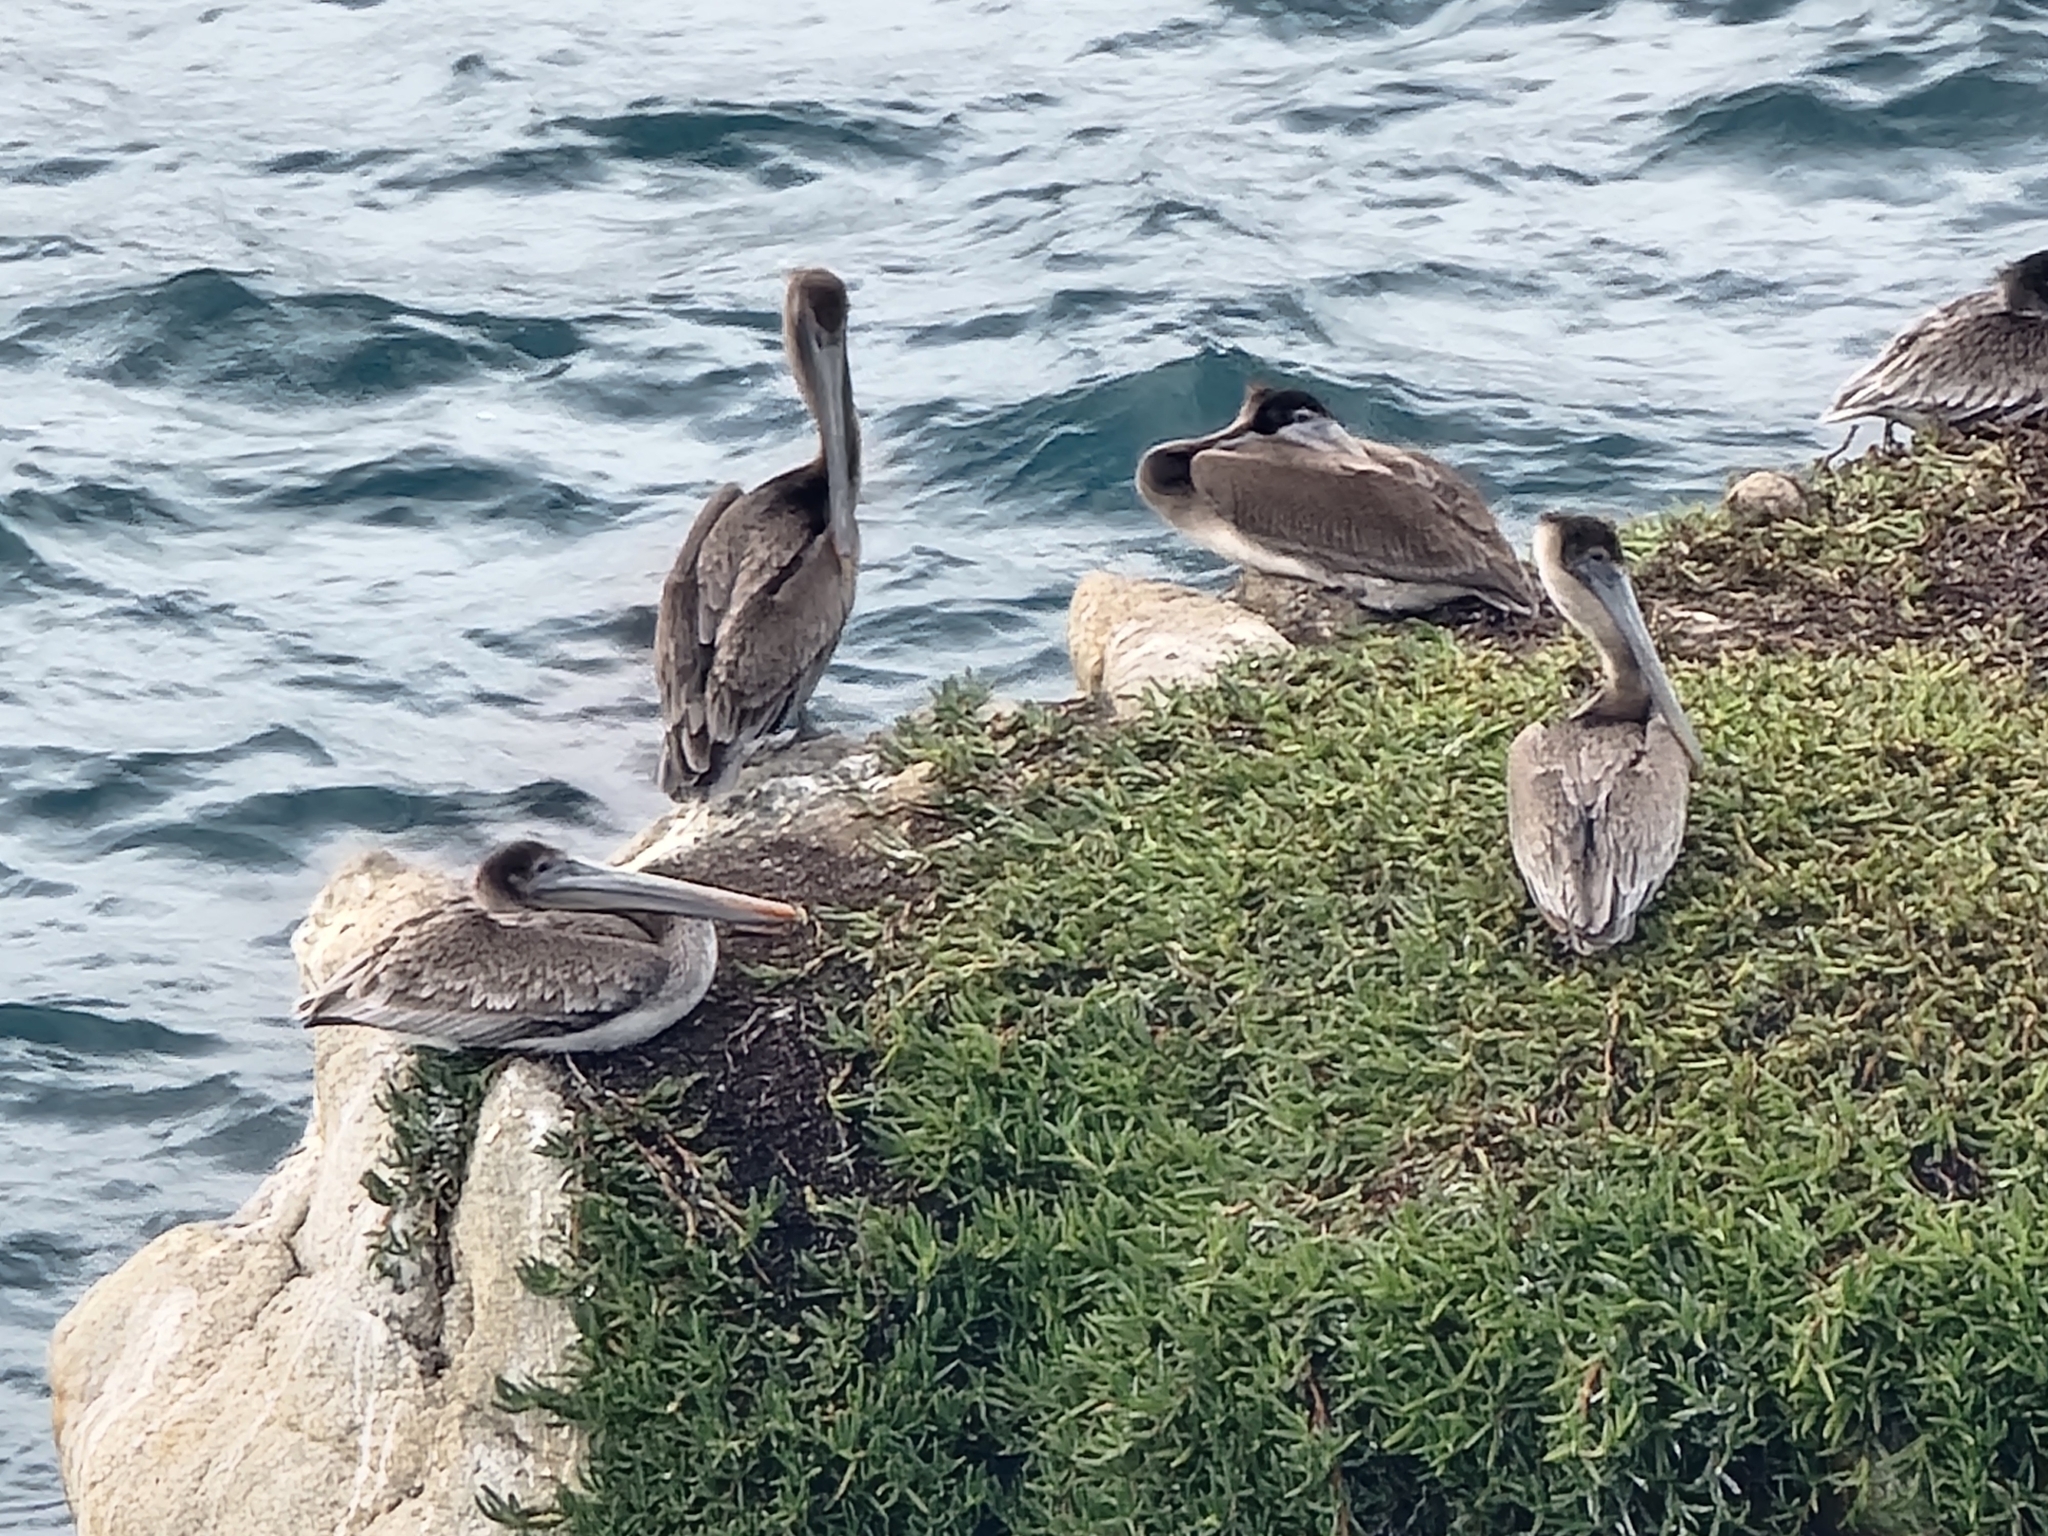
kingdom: Animalia
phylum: Chordata
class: Aves
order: Pelecaniformes
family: Pelecanidae
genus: Pelecanus
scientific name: Pelecanus occidentalis
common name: Brown pelican
